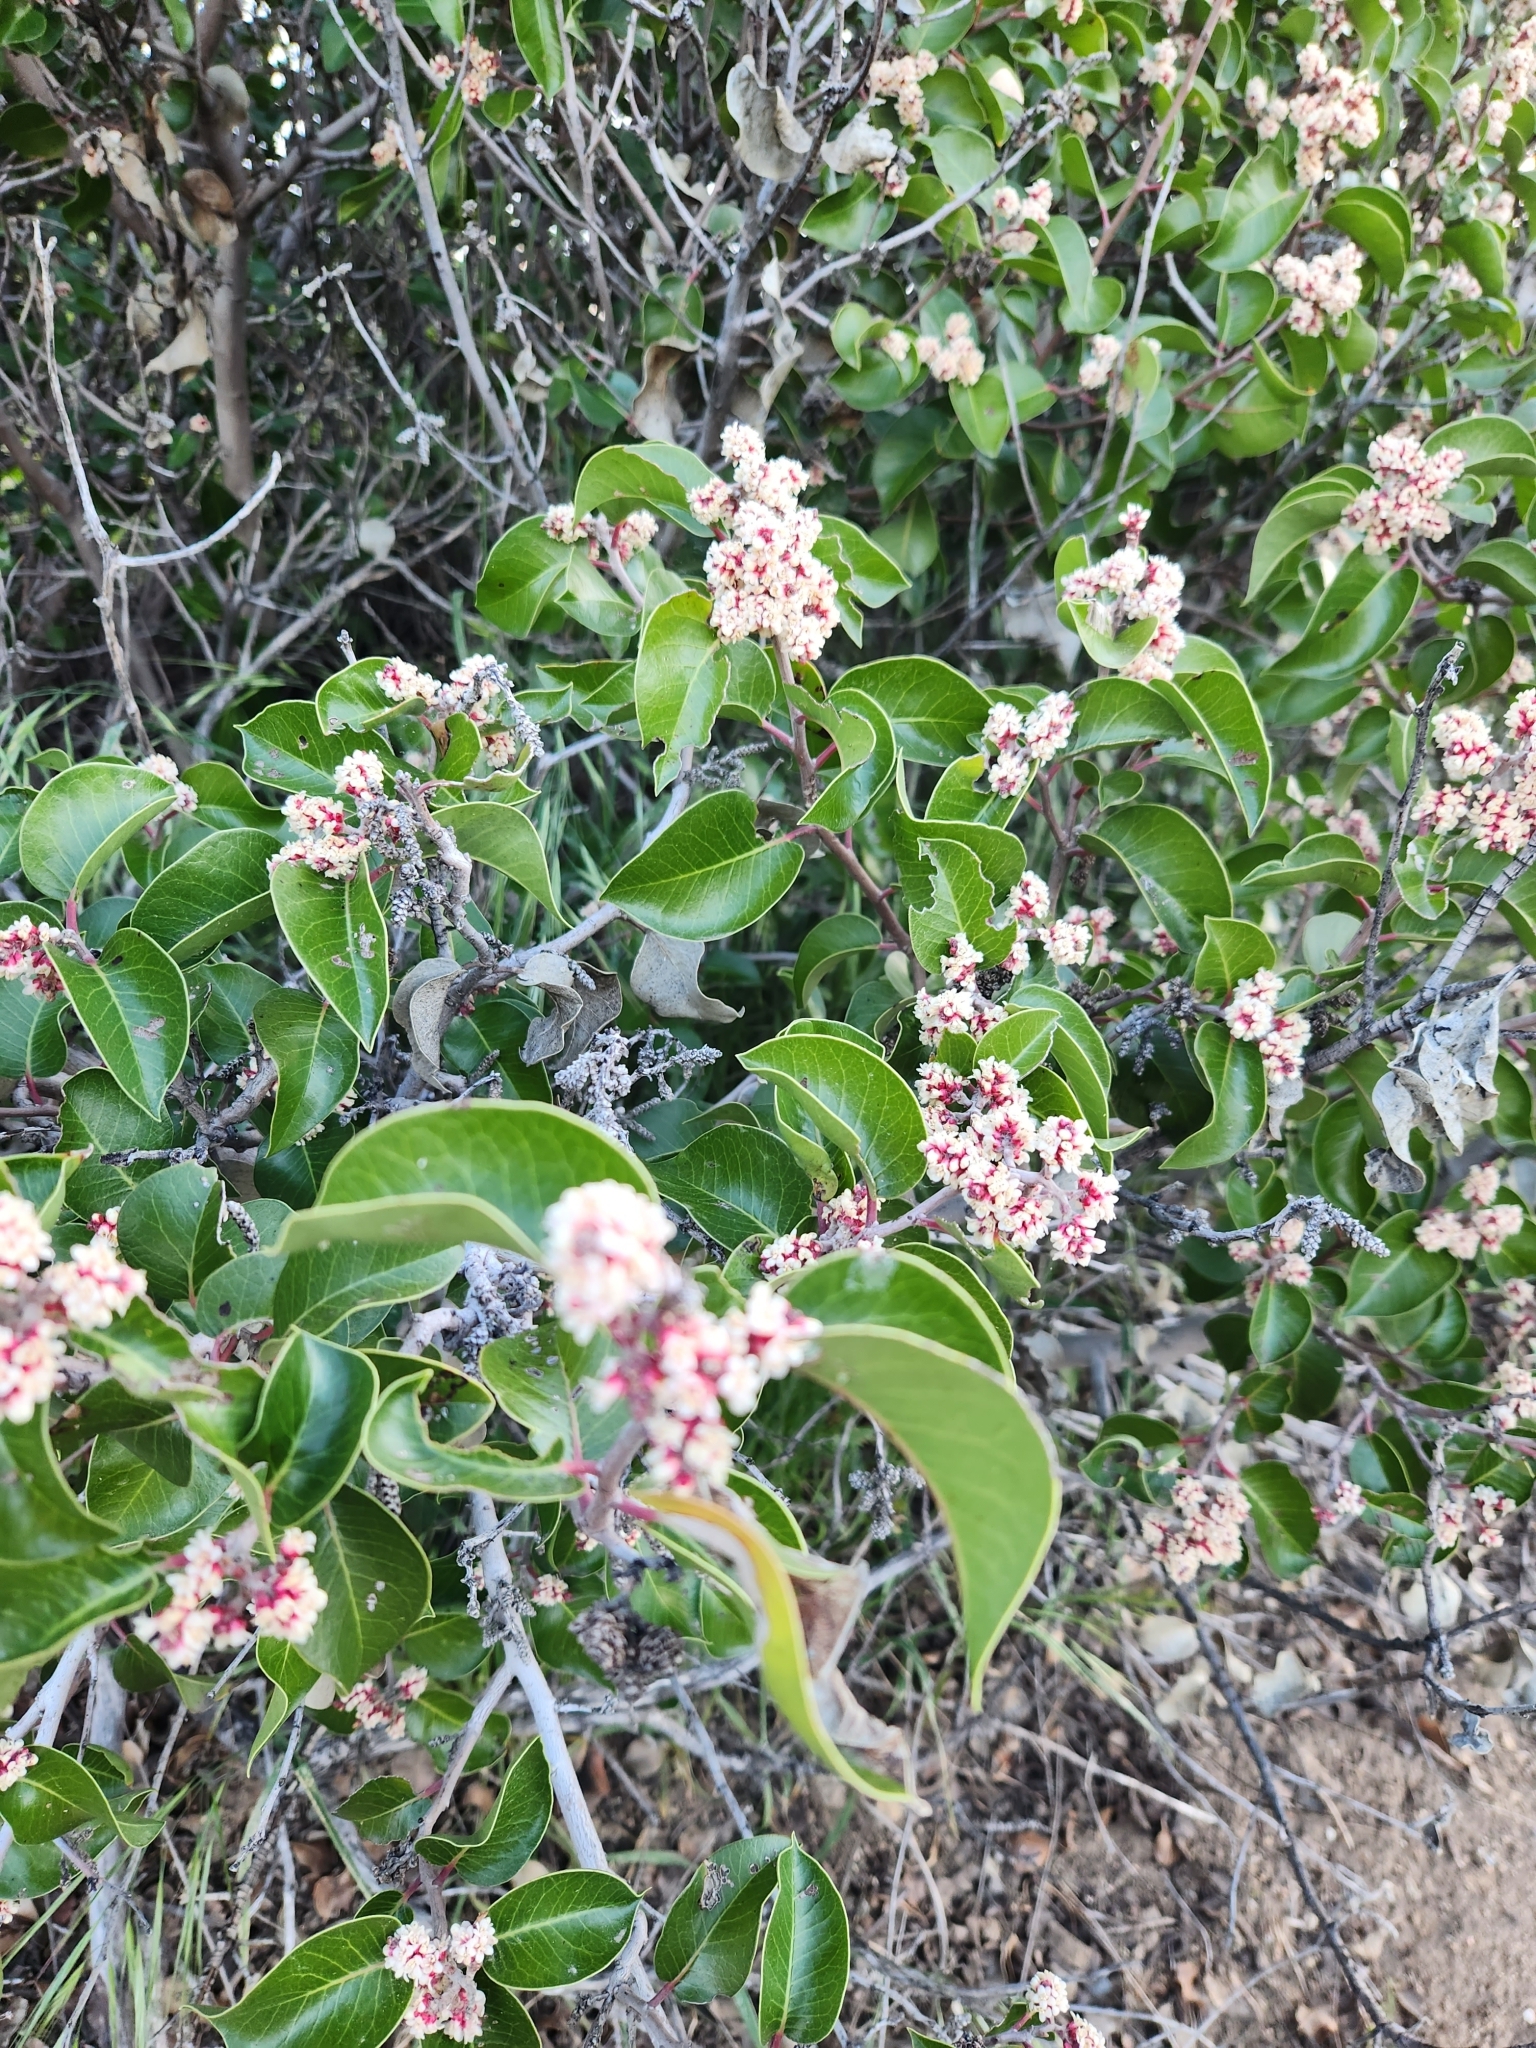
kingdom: Plantae
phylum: Tracheophyta
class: Magnoliopsida
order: Sapindales
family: Anacardiaceae
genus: Rhus
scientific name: Rhus ovata
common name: Sugar sumac
